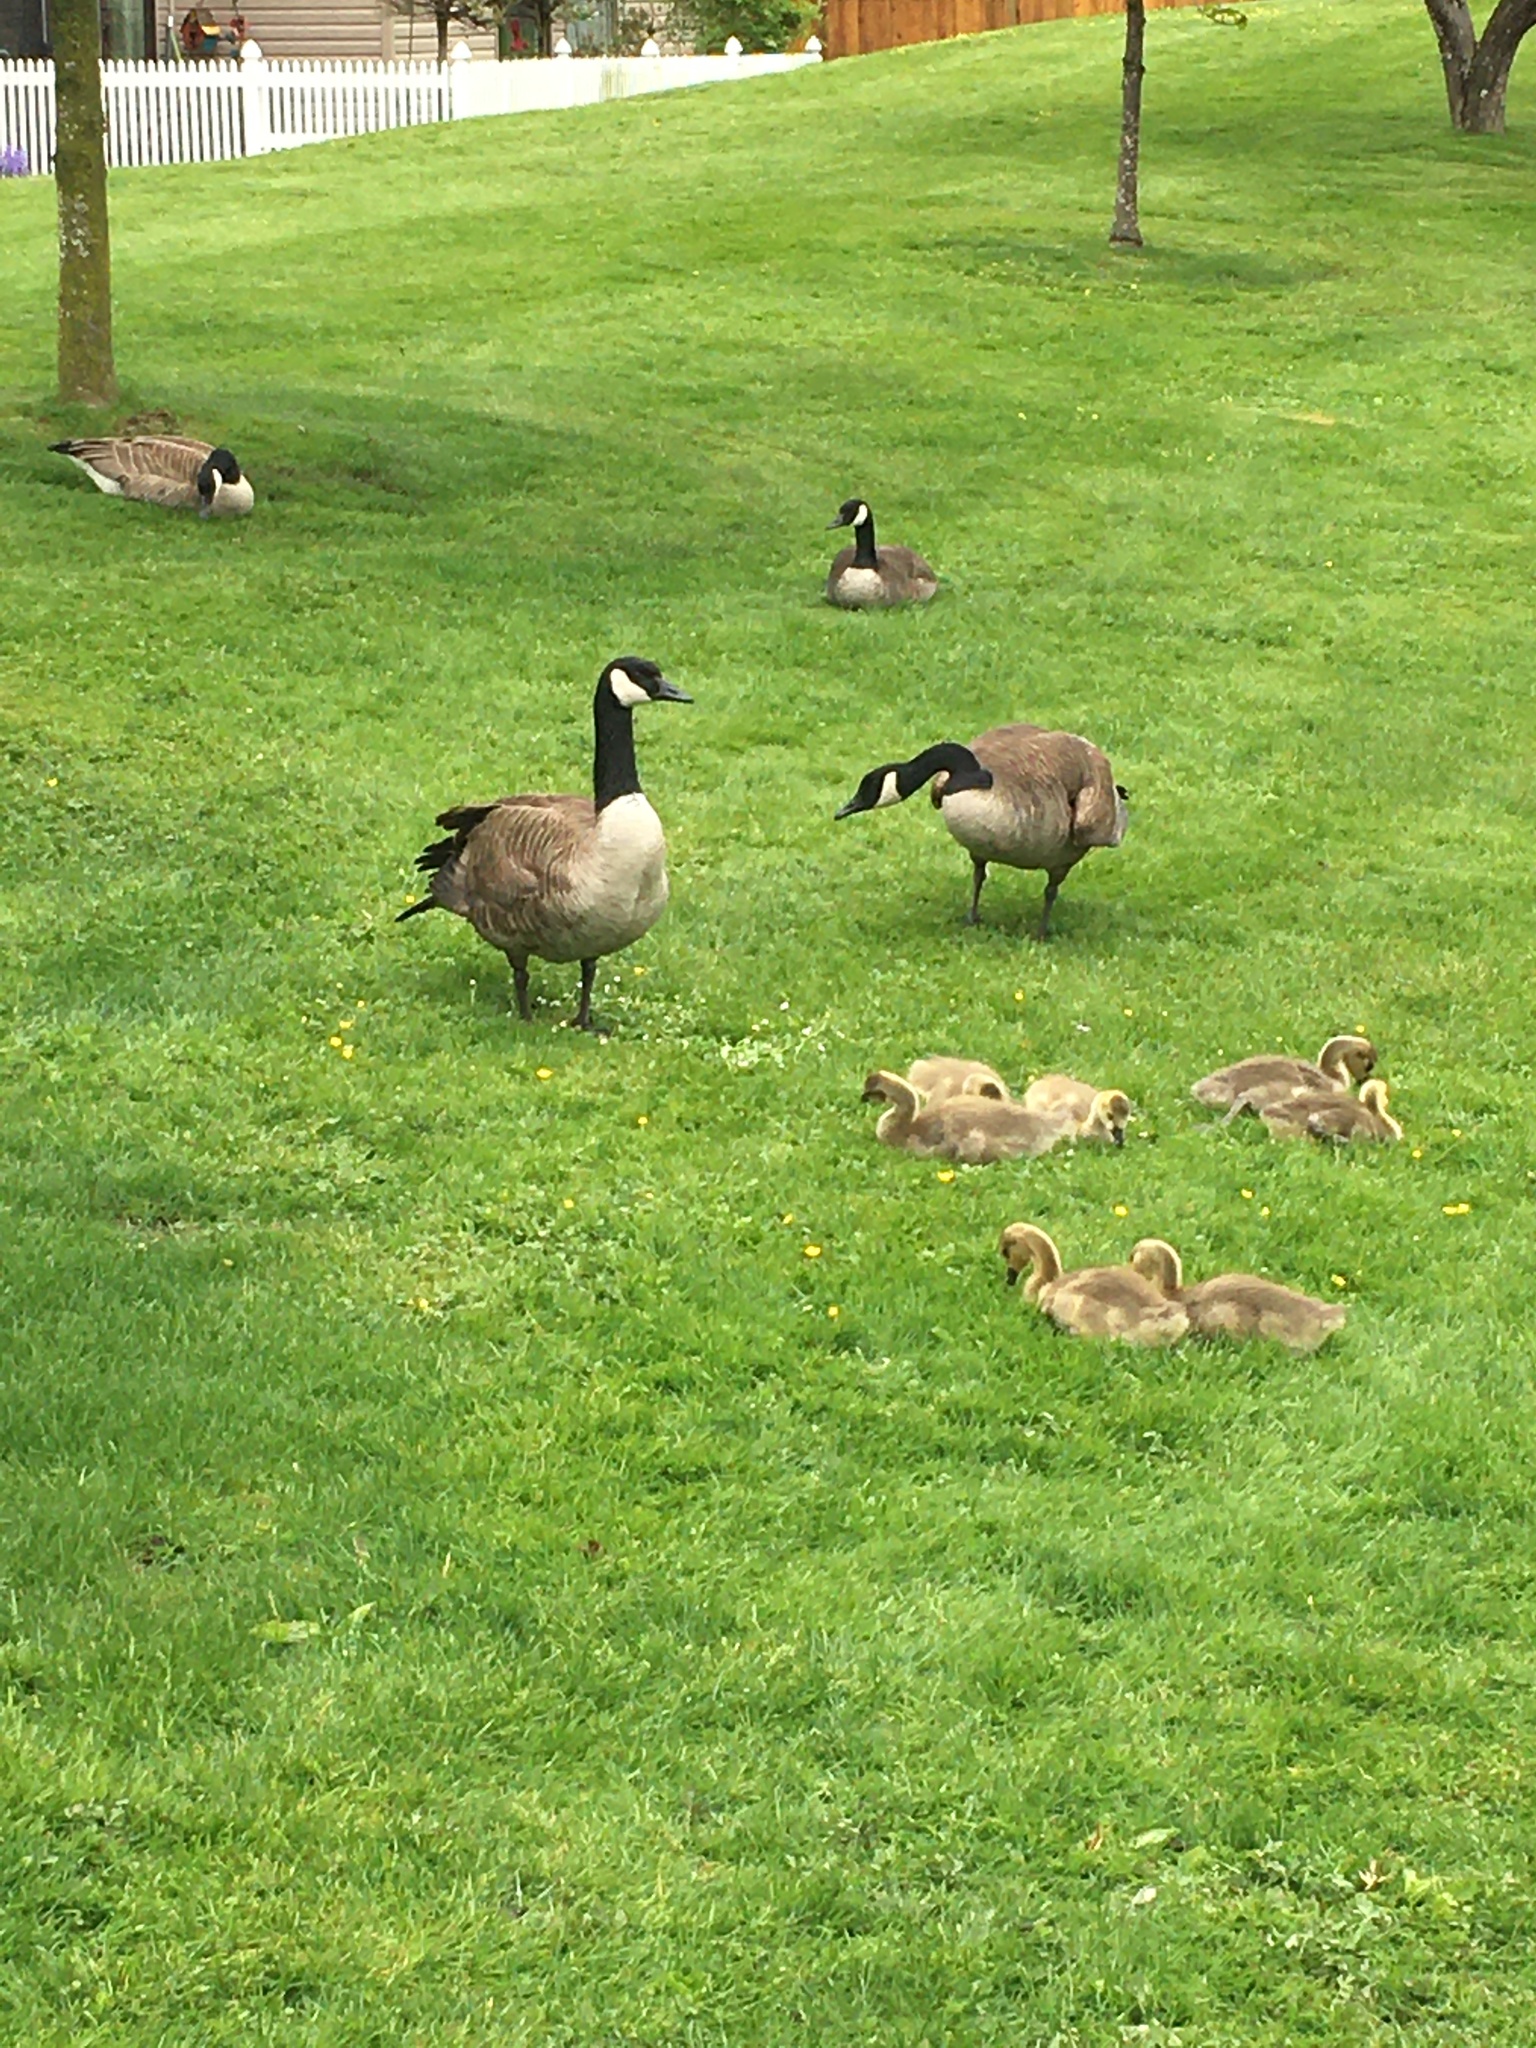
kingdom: Animalia
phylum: Chordata
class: Aves
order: Anseriformes
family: Anatidae
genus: Branta
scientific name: Branta canadensis
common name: Canada goose
